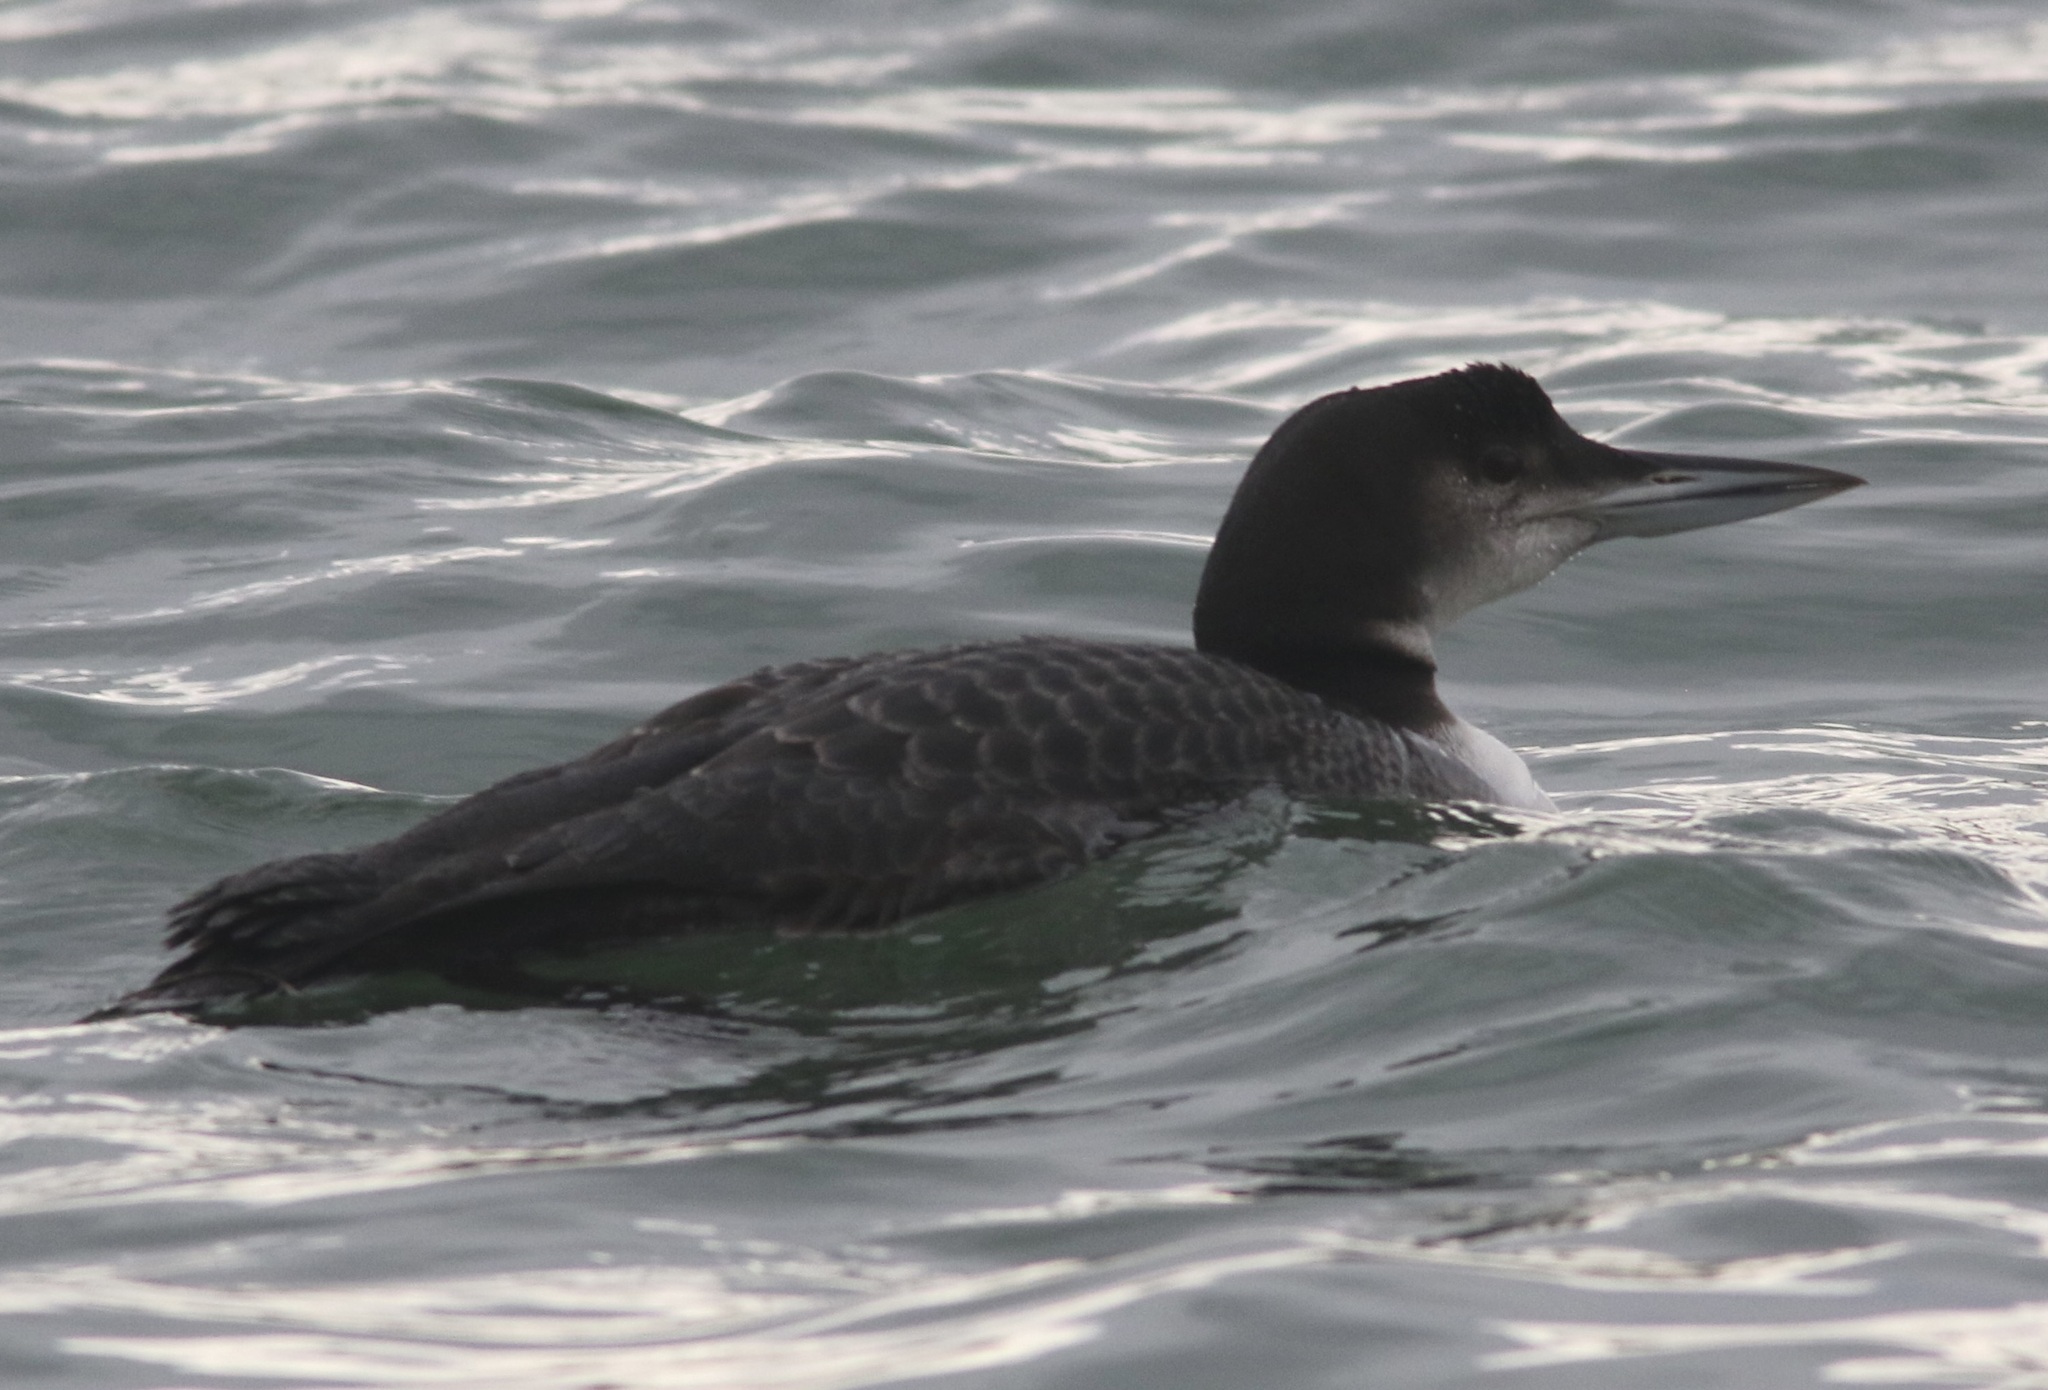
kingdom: Animalia
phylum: Chordata
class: Aves
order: Gaviiformes
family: Gaviidae
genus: Gavia
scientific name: Gavia immer
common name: Common loon
